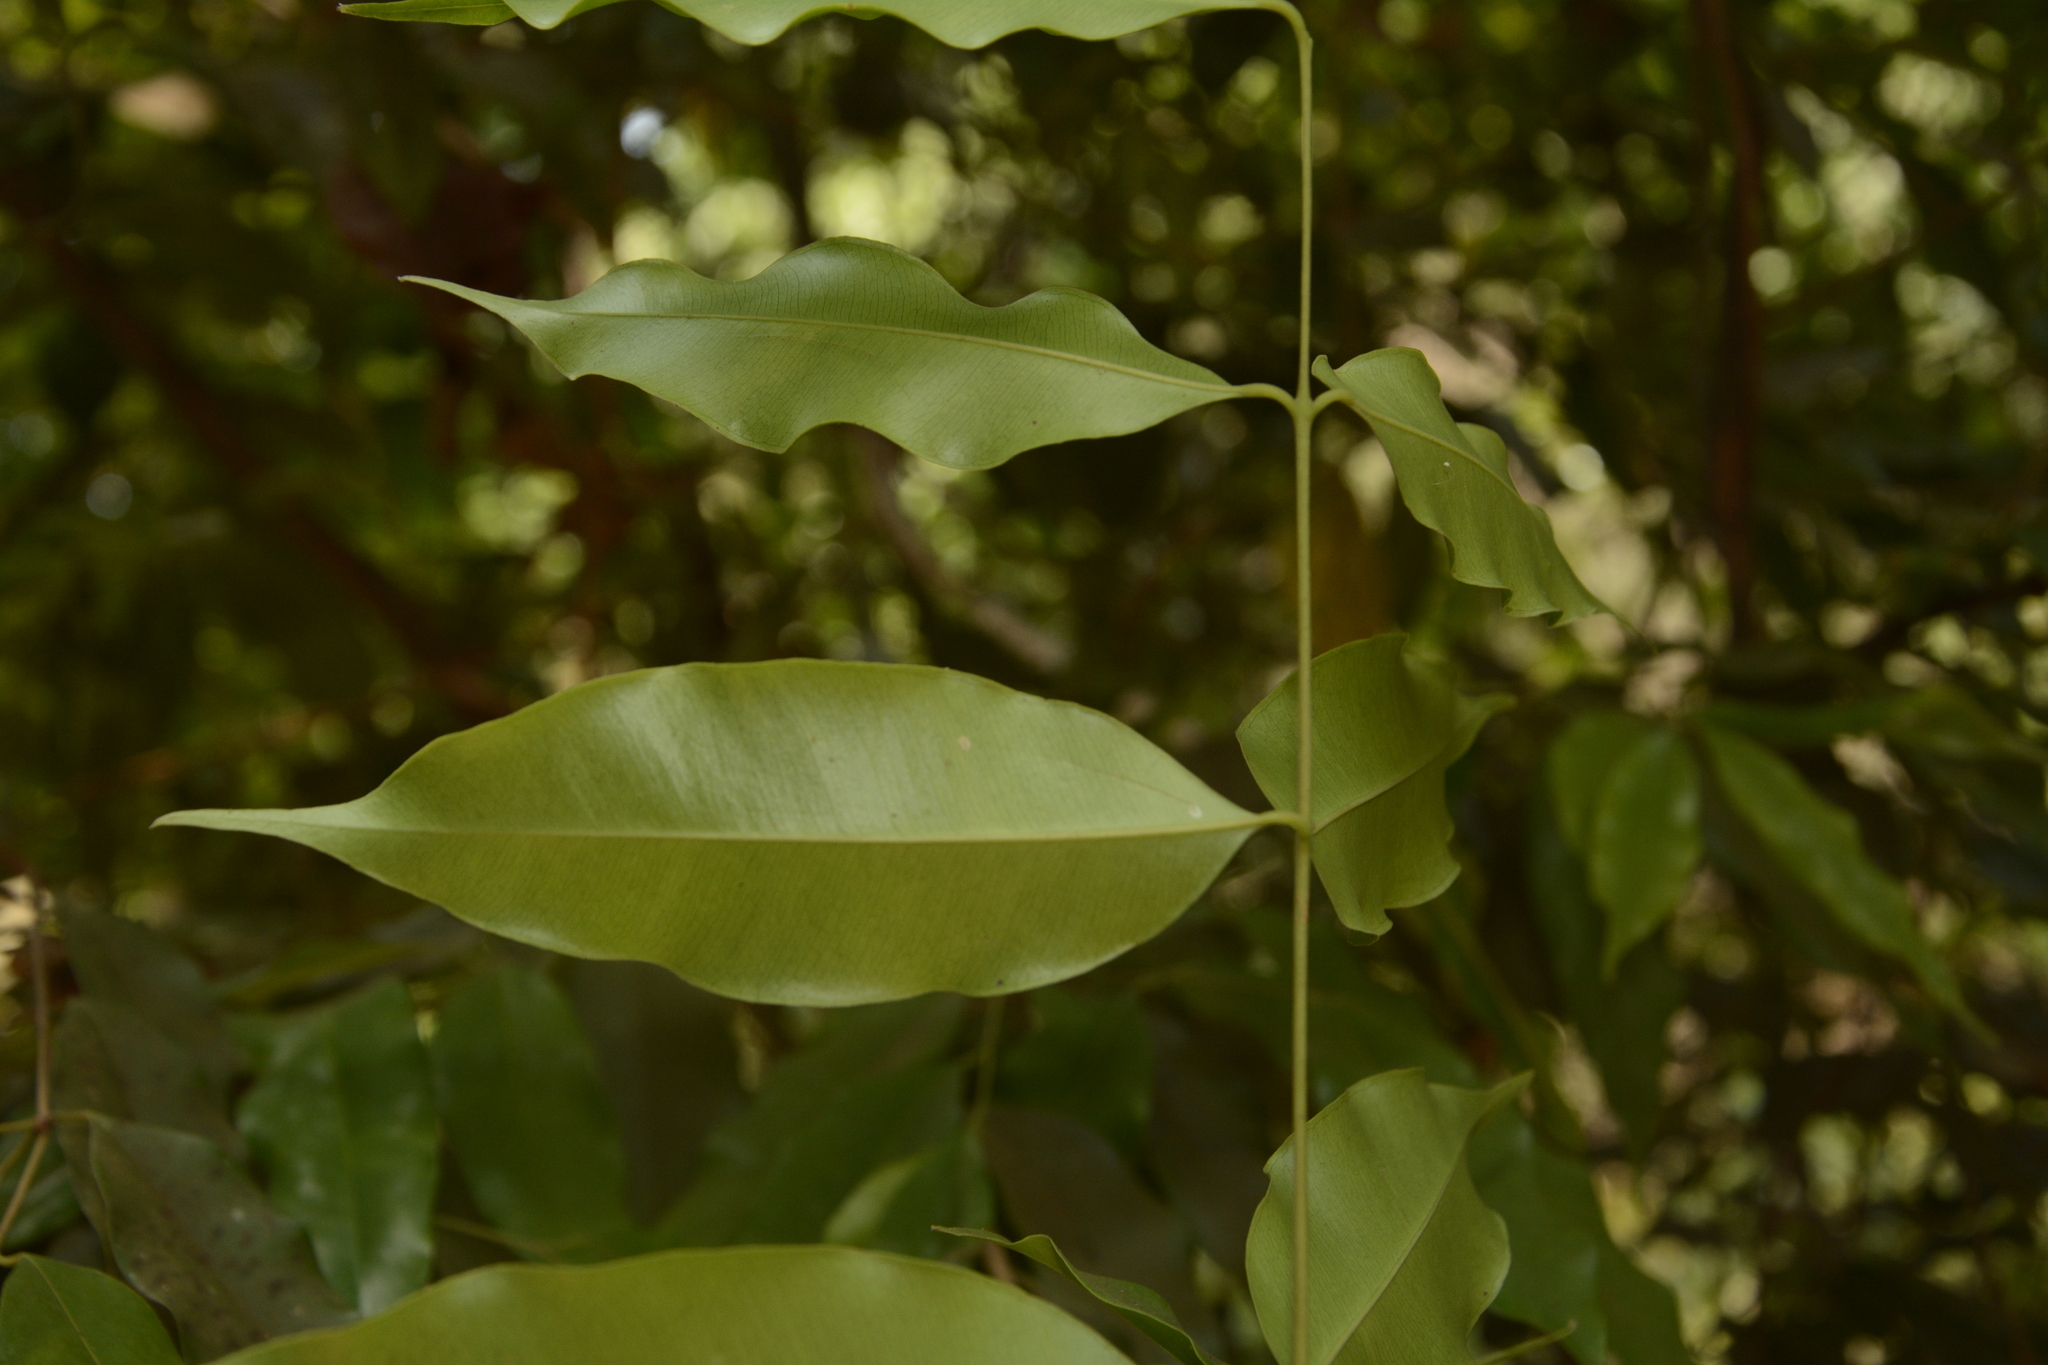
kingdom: Plantae
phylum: Tracheophyta
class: Magnoliopsida
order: Myrtales
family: Myrtaceae
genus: Syzygium
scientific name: Syzygium gardneri
